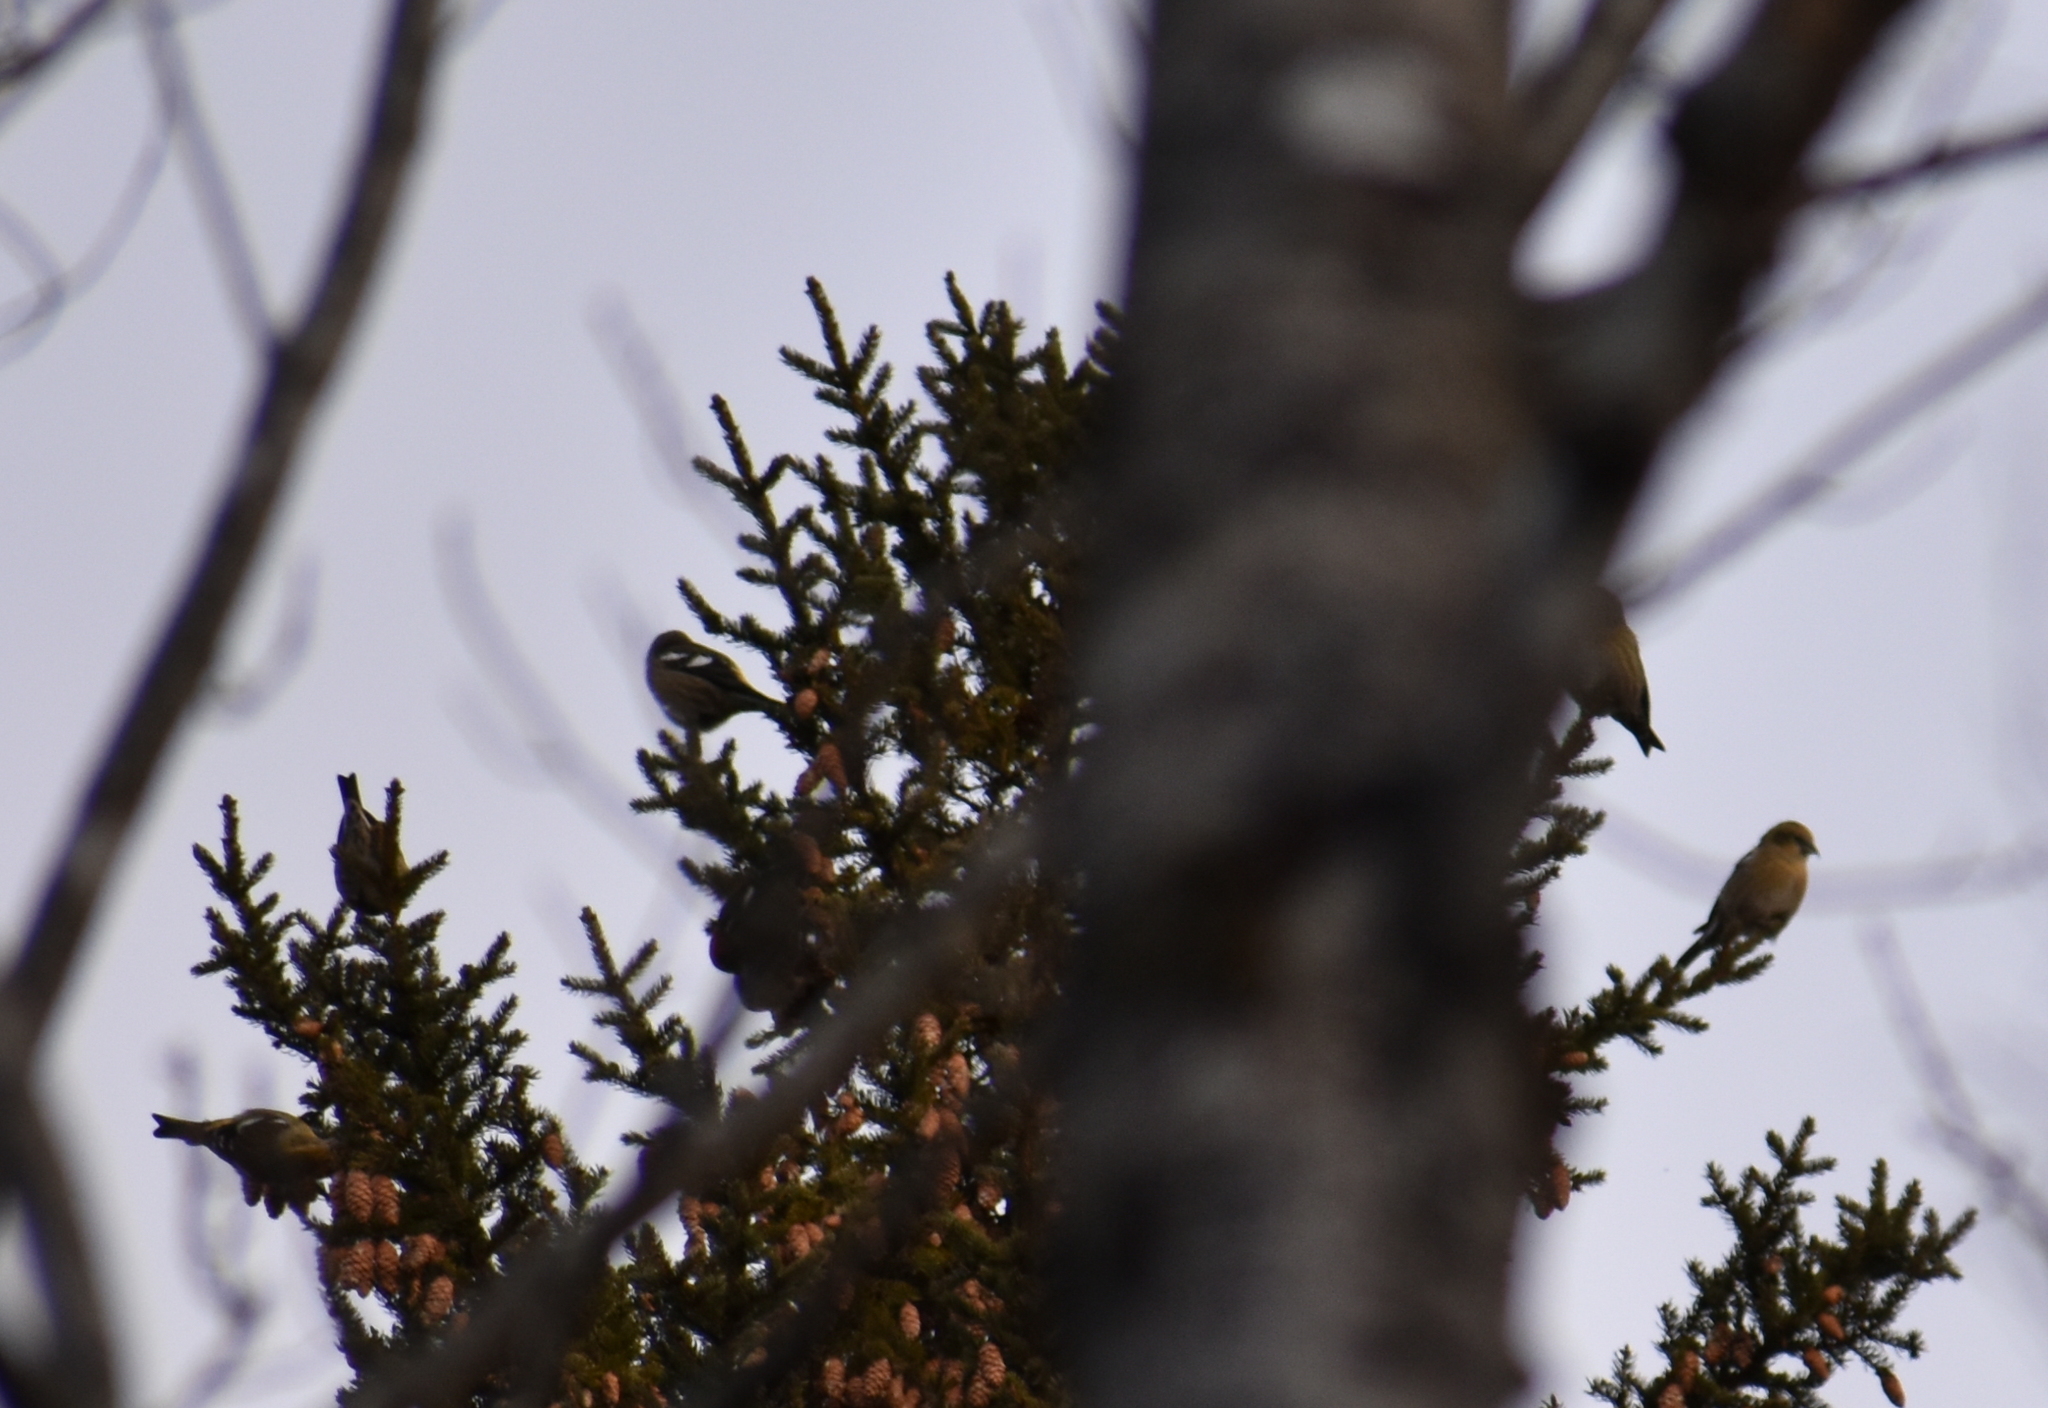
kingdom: Animalia
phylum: Chordata
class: Aves
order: Passeriformes
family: Fringillidae
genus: Loxia
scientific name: Loxia leucoptera
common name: Two-barred crossbill
